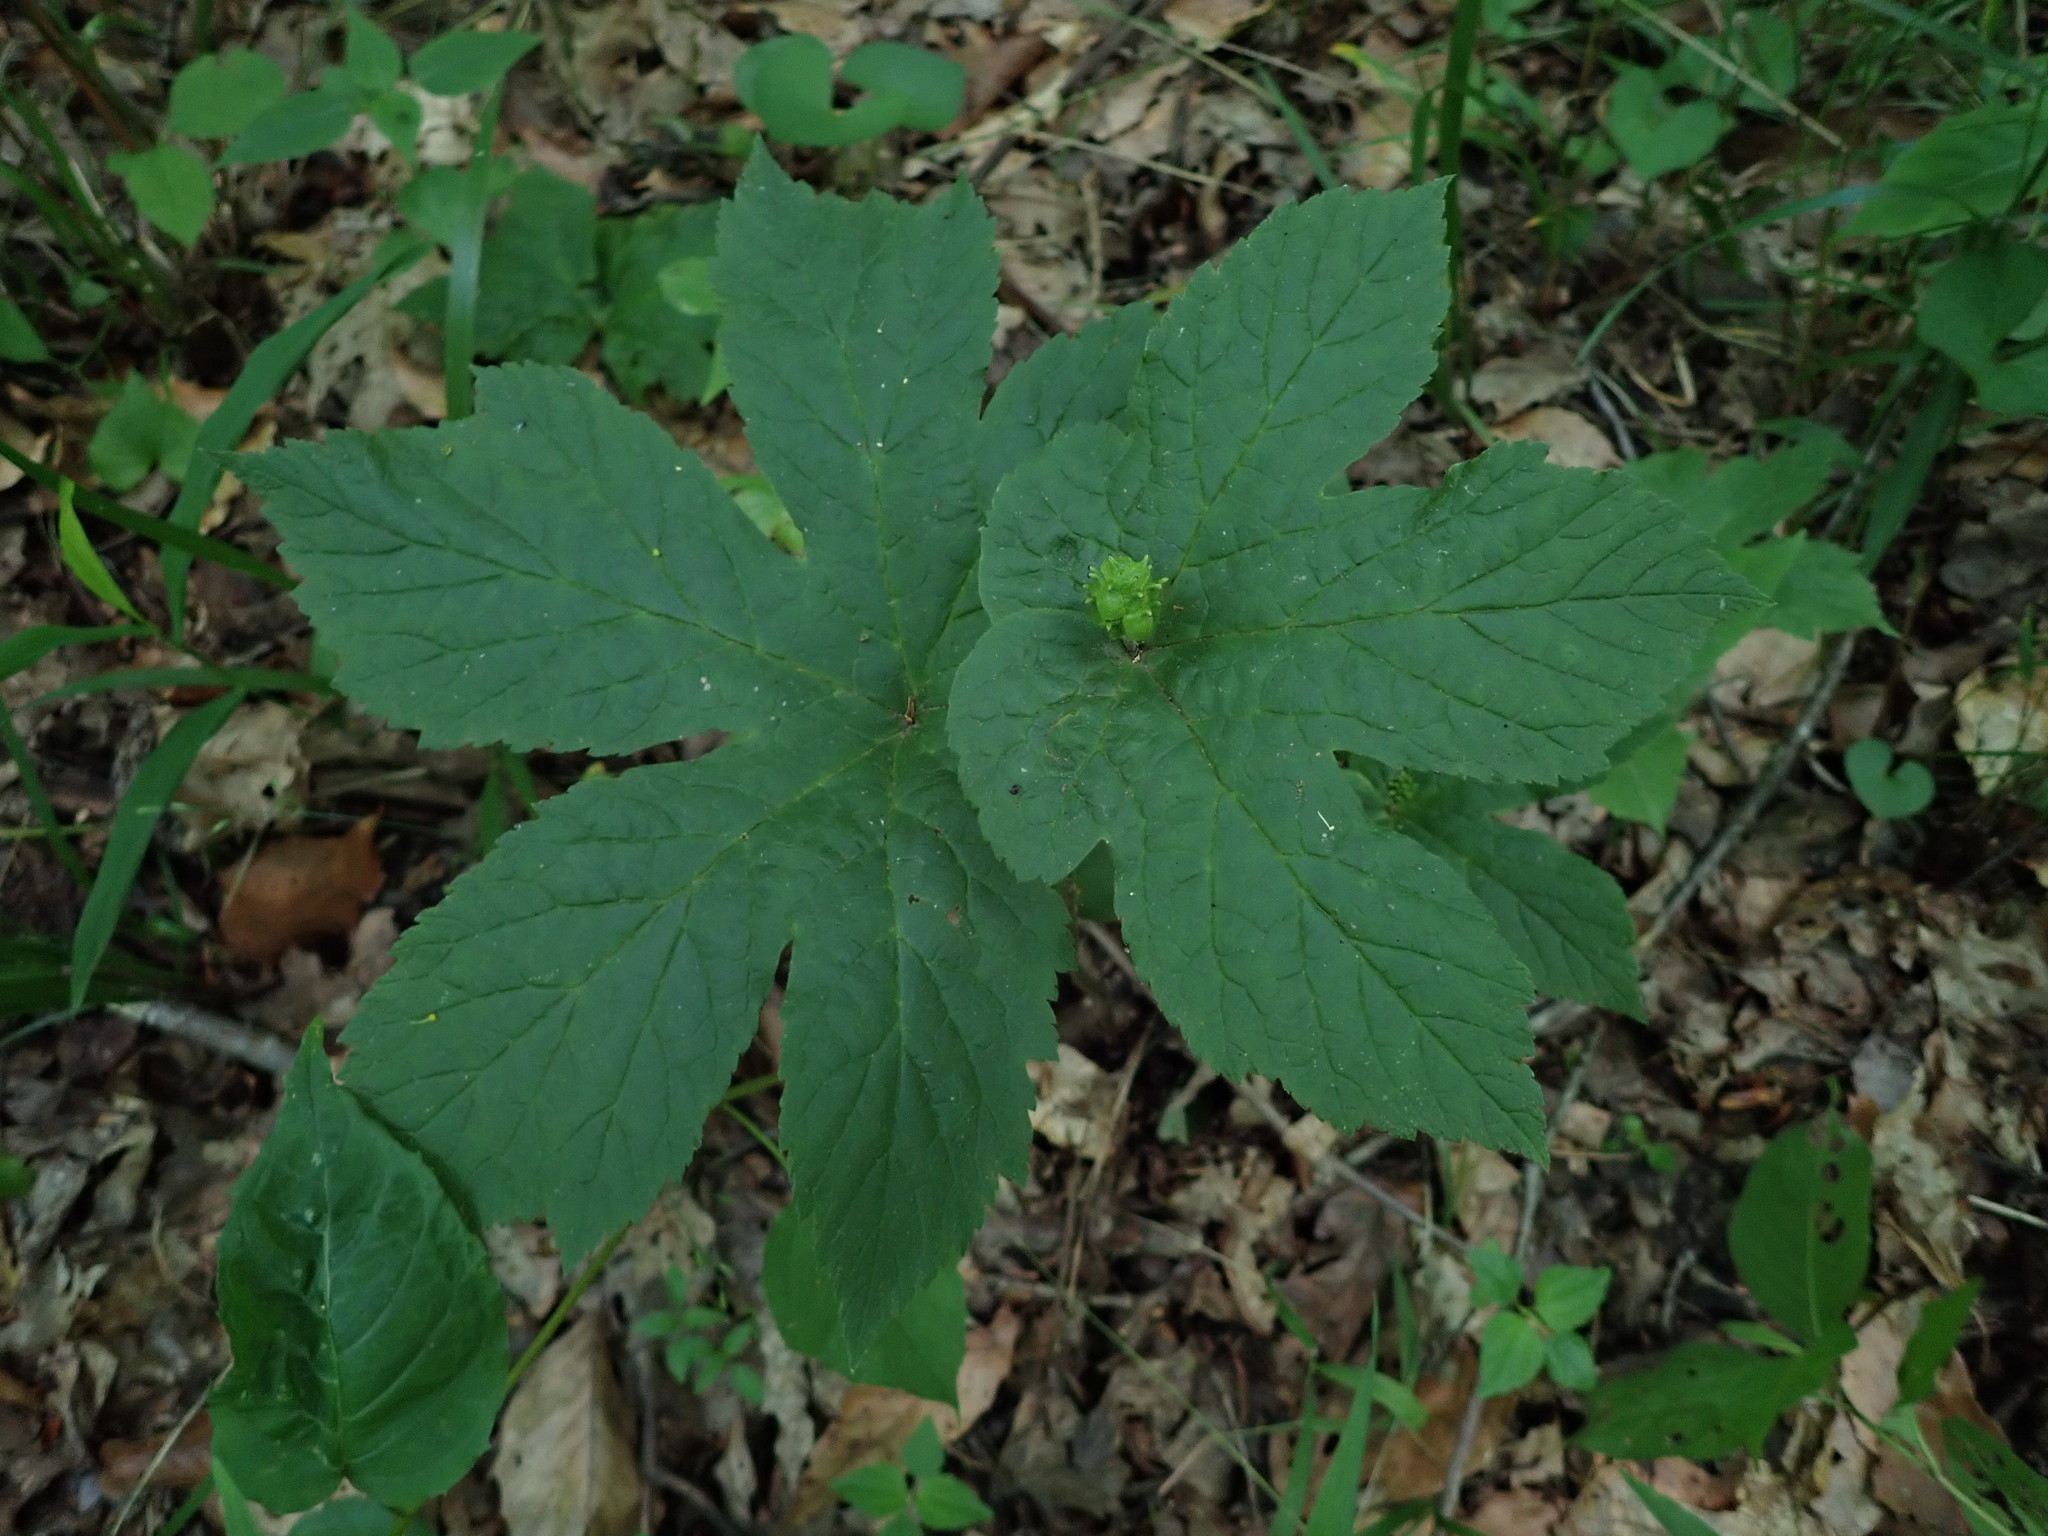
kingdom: Plantae
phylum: Tracheophyta
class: Magnoliopsida
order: Ranunculales
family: Ranunculaceae
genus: Hydrastis
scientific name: Hydrastis canadensis
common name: Goldenseal
